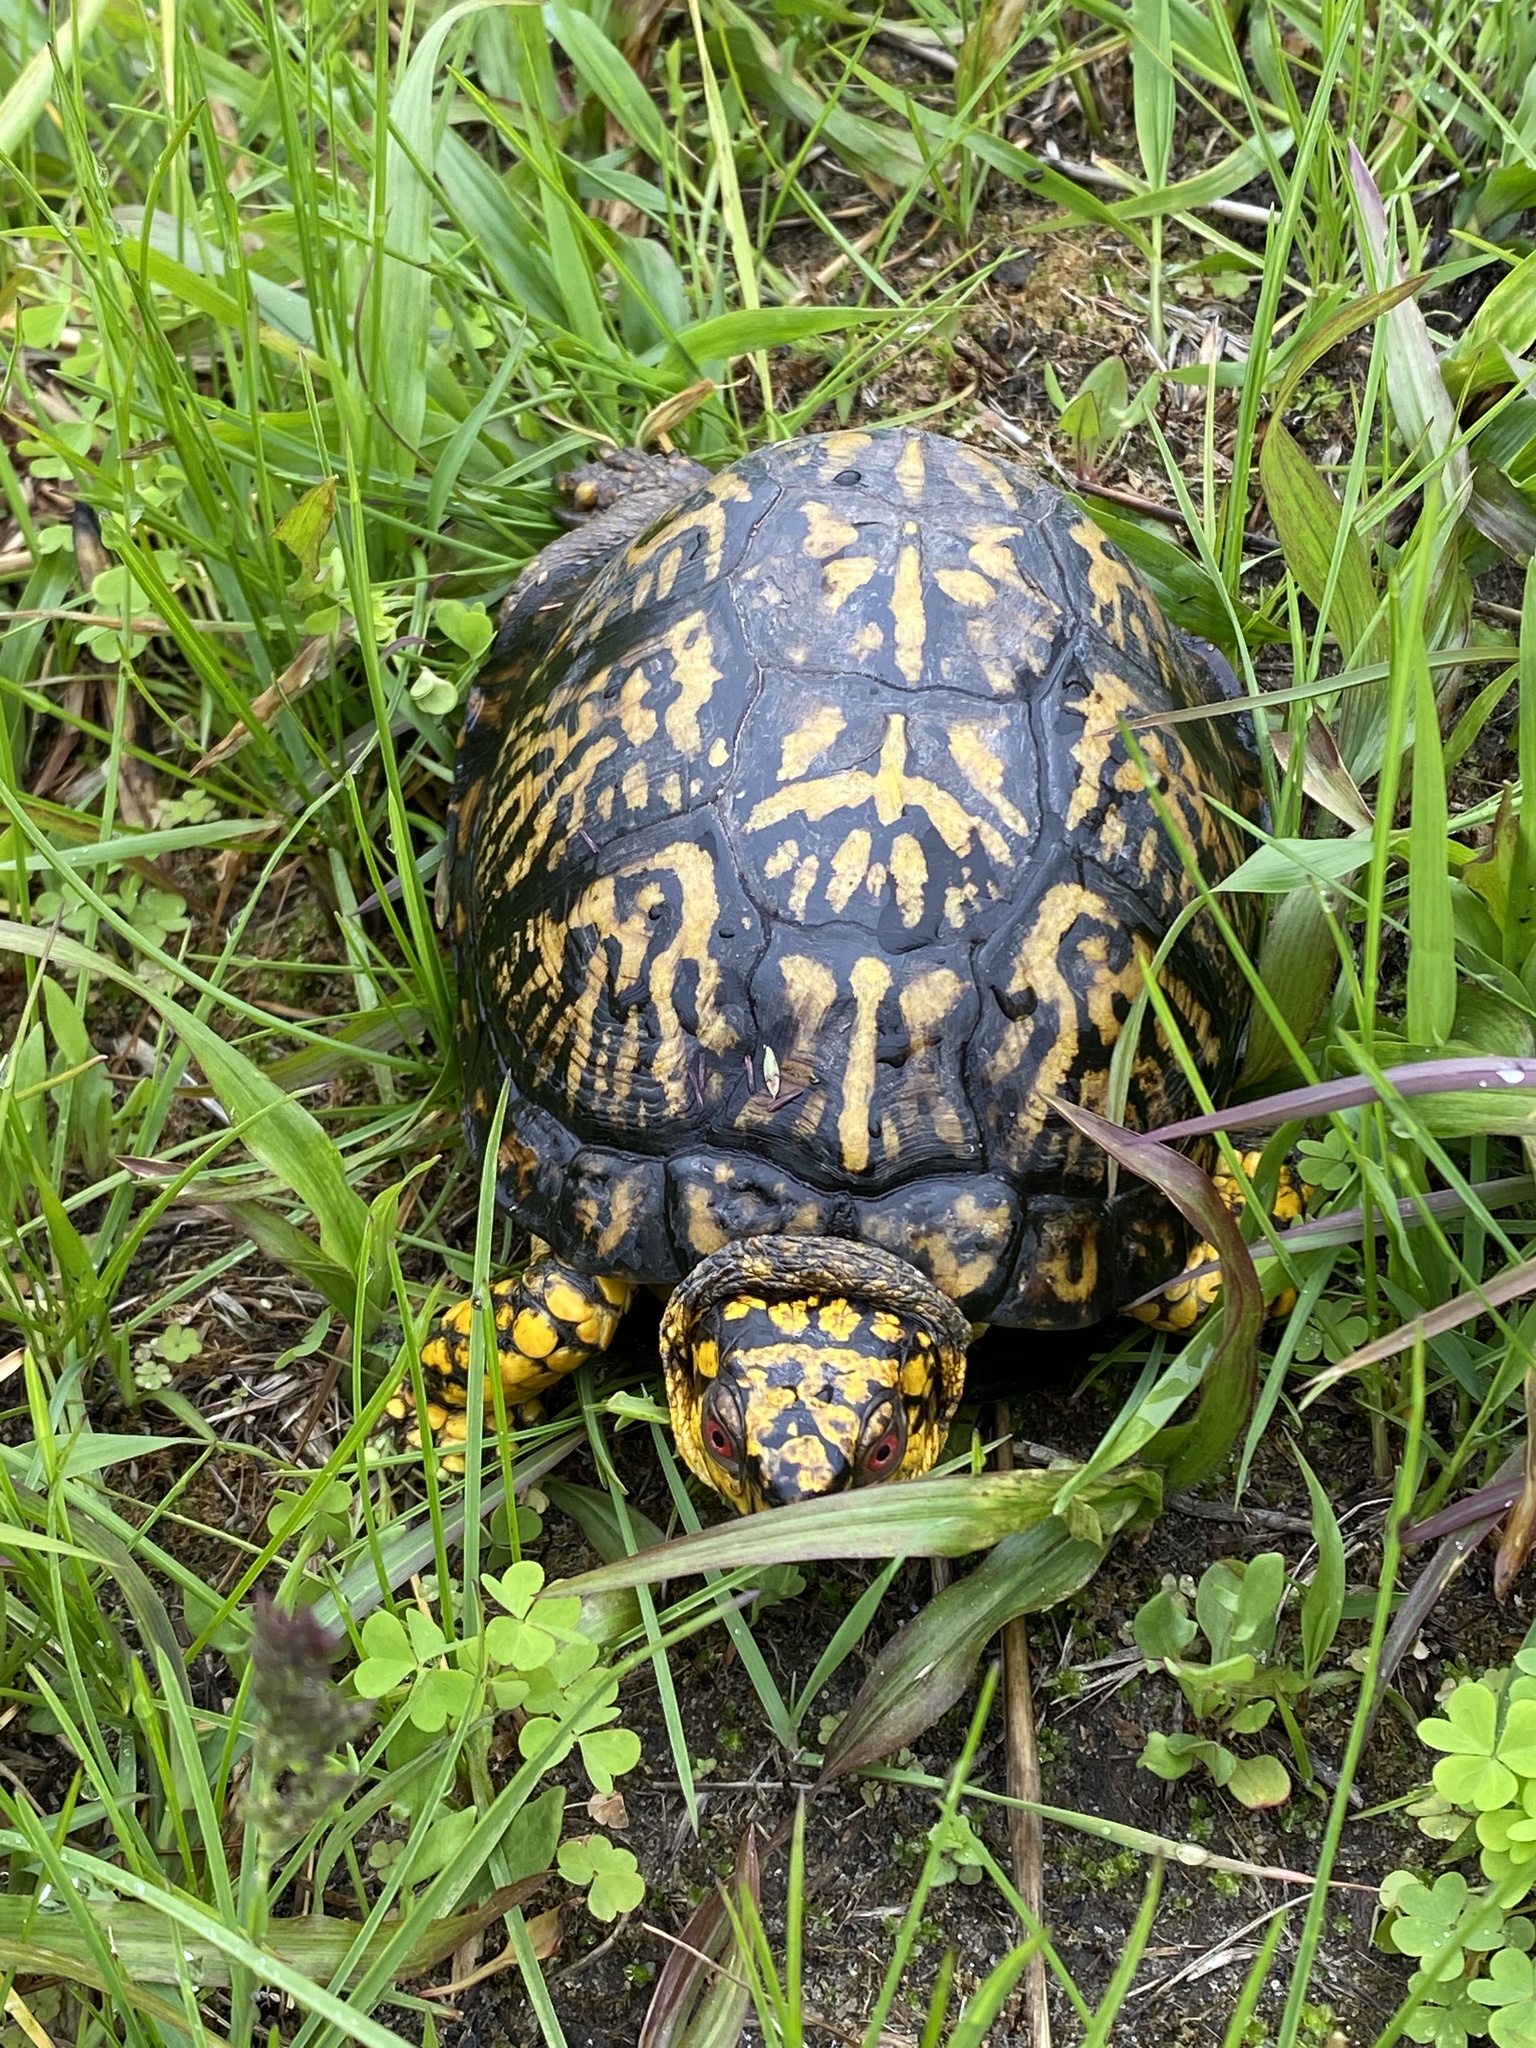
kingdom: Animalia
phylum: Chordata
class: Testudines
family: Emydidae
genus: Terrapene
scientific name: Terrapene carolina
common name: Common box turtle
